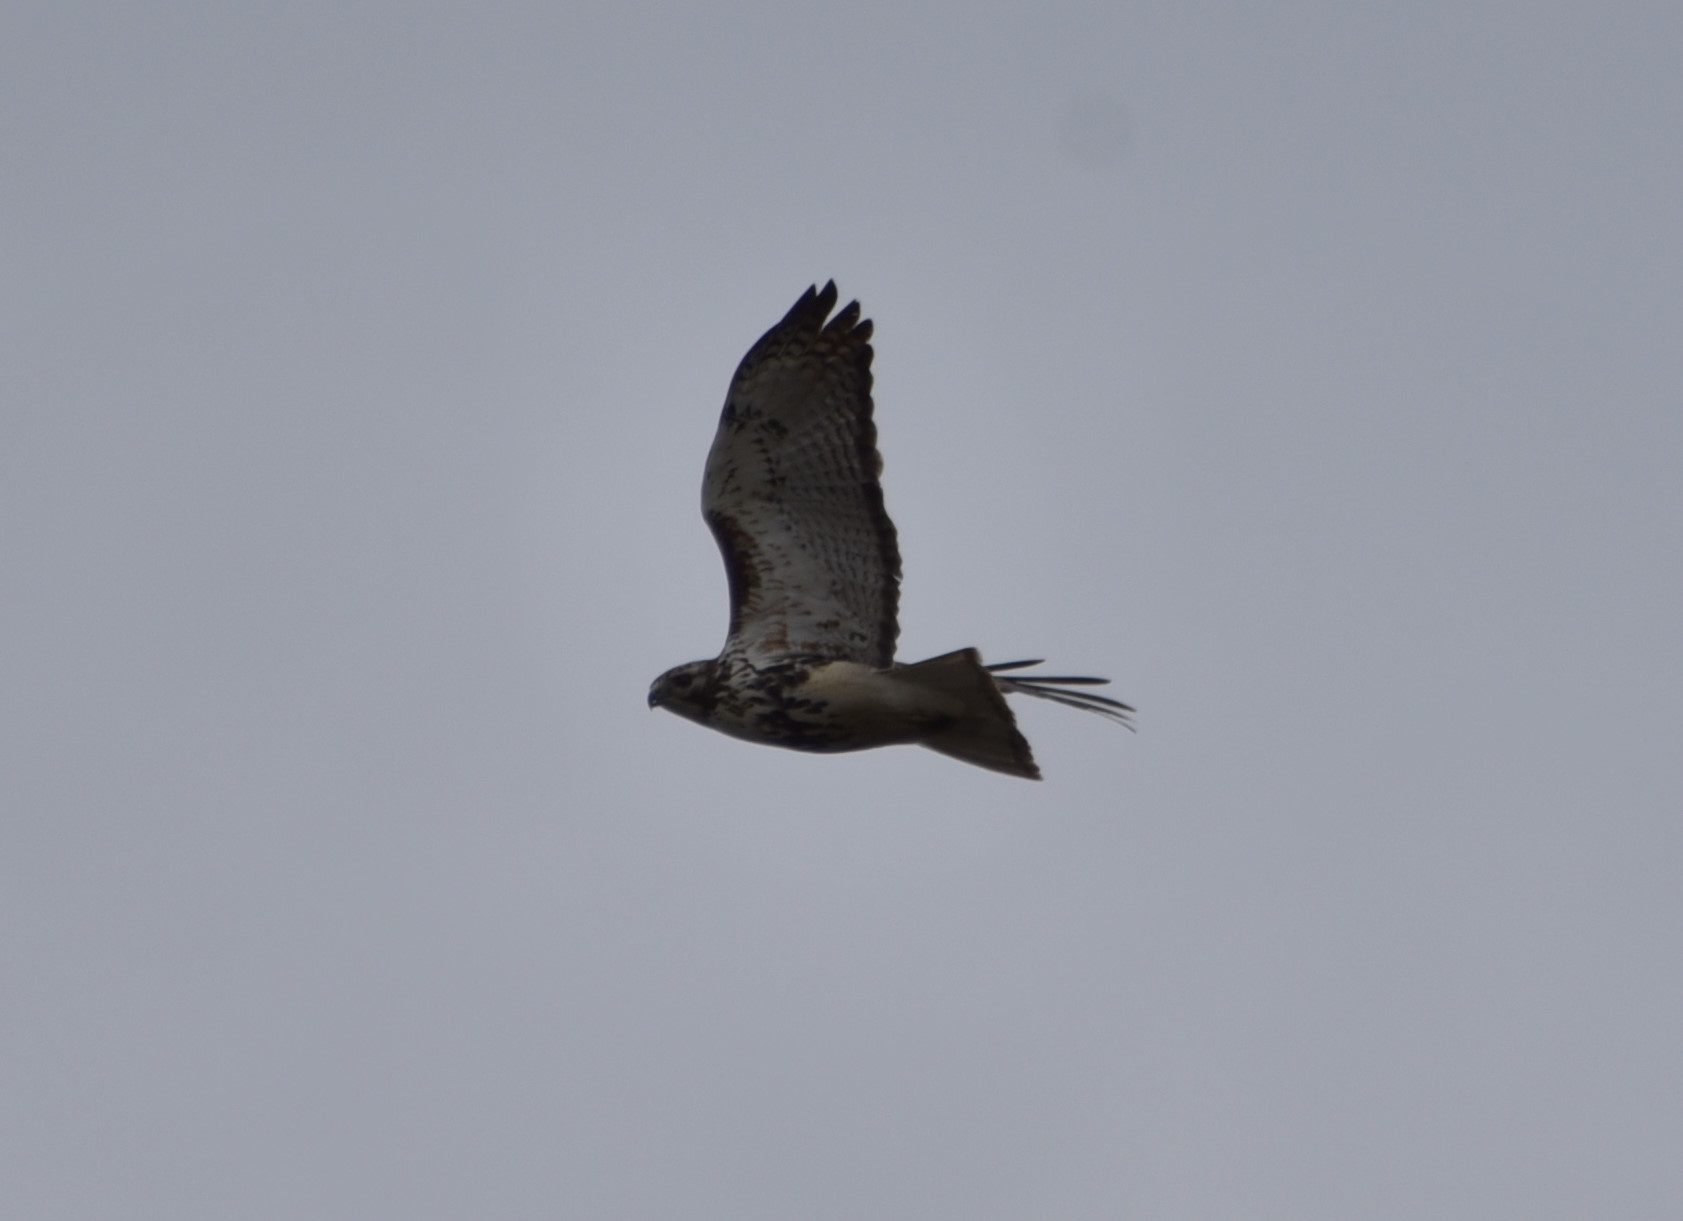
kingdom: Animalia
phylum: Chordata
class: Aves
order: Accipitriformes
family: Accipitridae
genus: Buteo
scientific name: Buteo jamaicensis
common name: Red-tailed hawk
